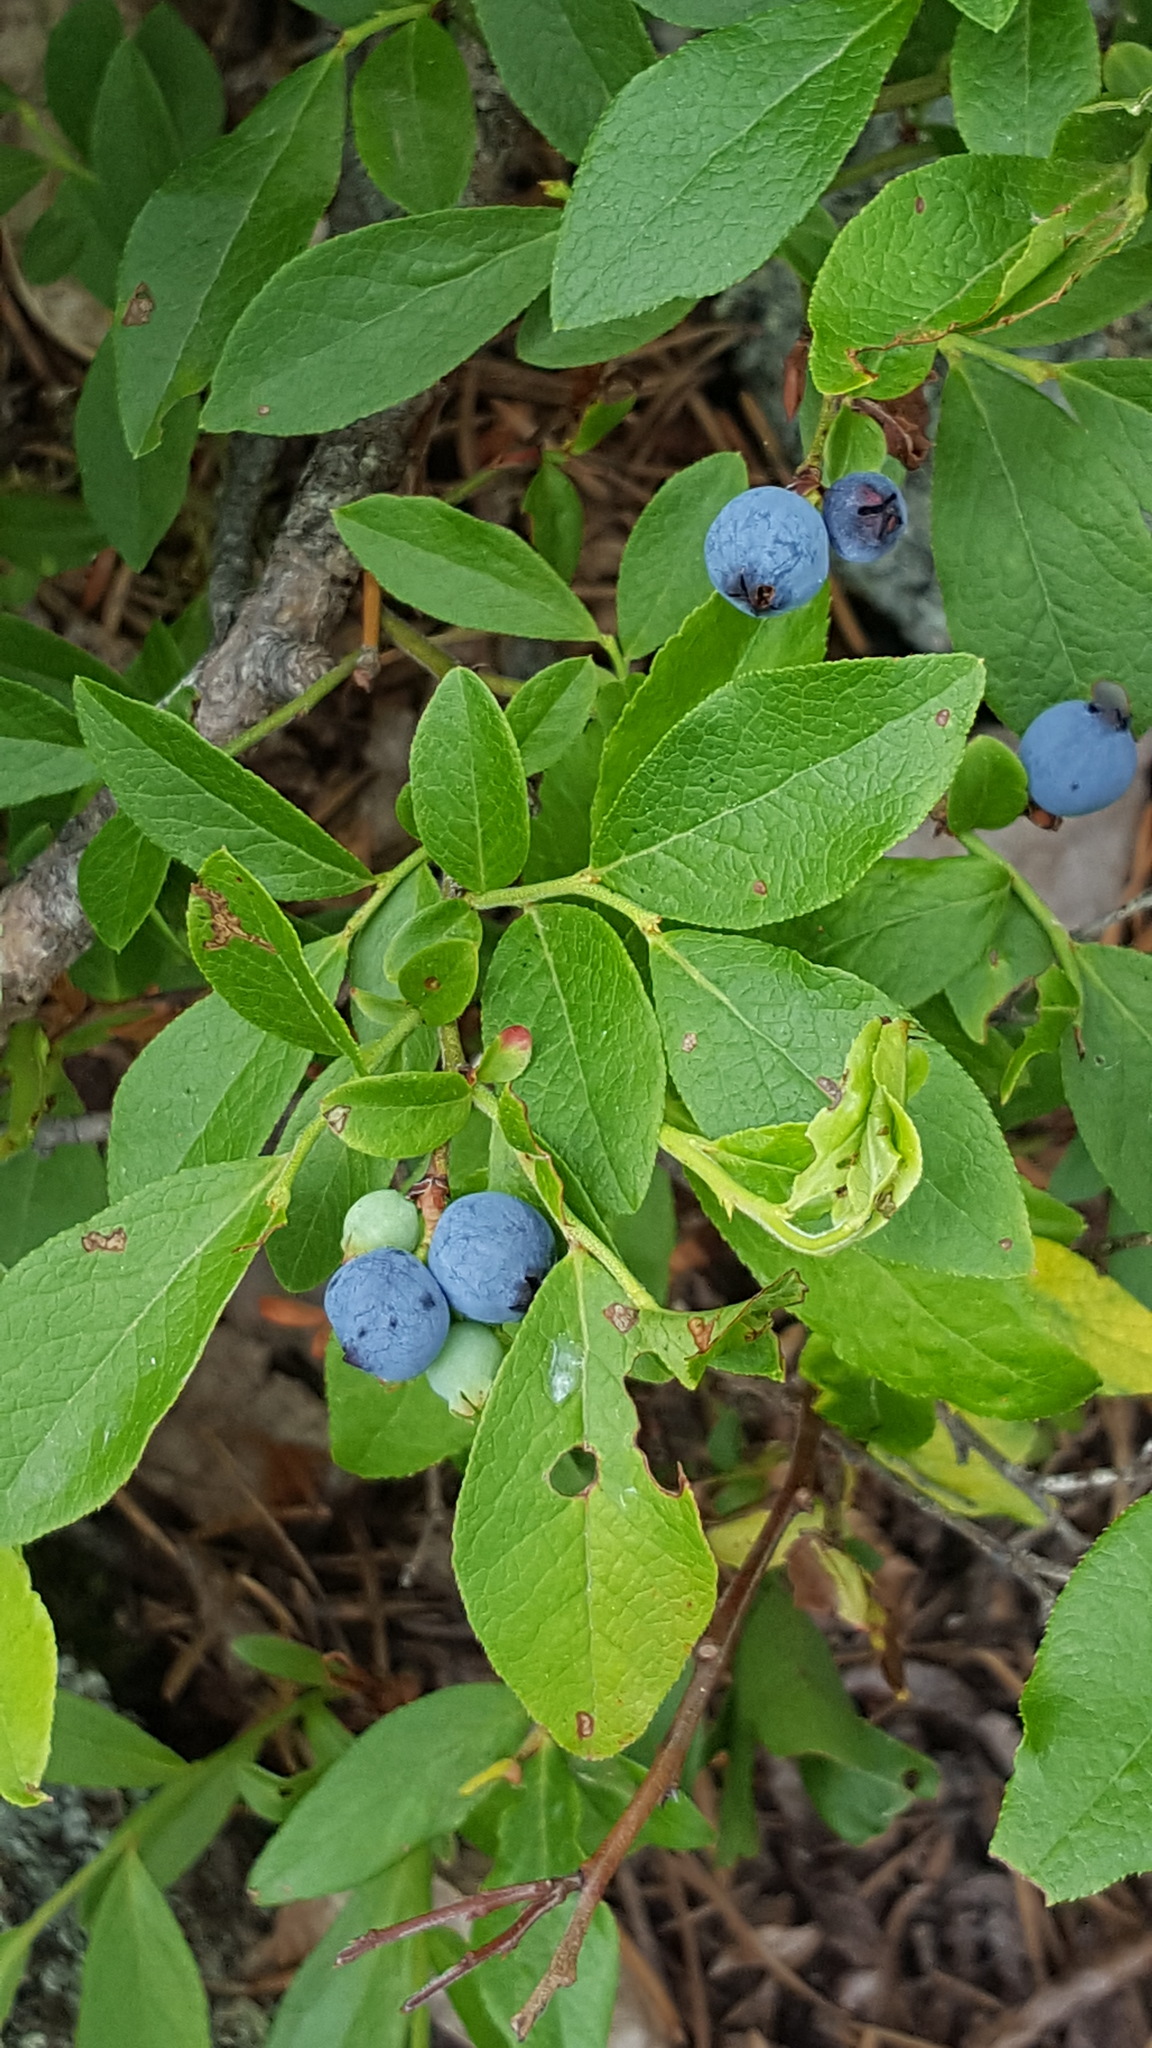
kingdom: Plantae
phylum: Tracheophyta
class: Magnoliopsida
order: Ericales
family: Ericaceae
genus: Vaccinium
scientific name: Vaccinium angustifolium
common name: Early lowbush blueberry
